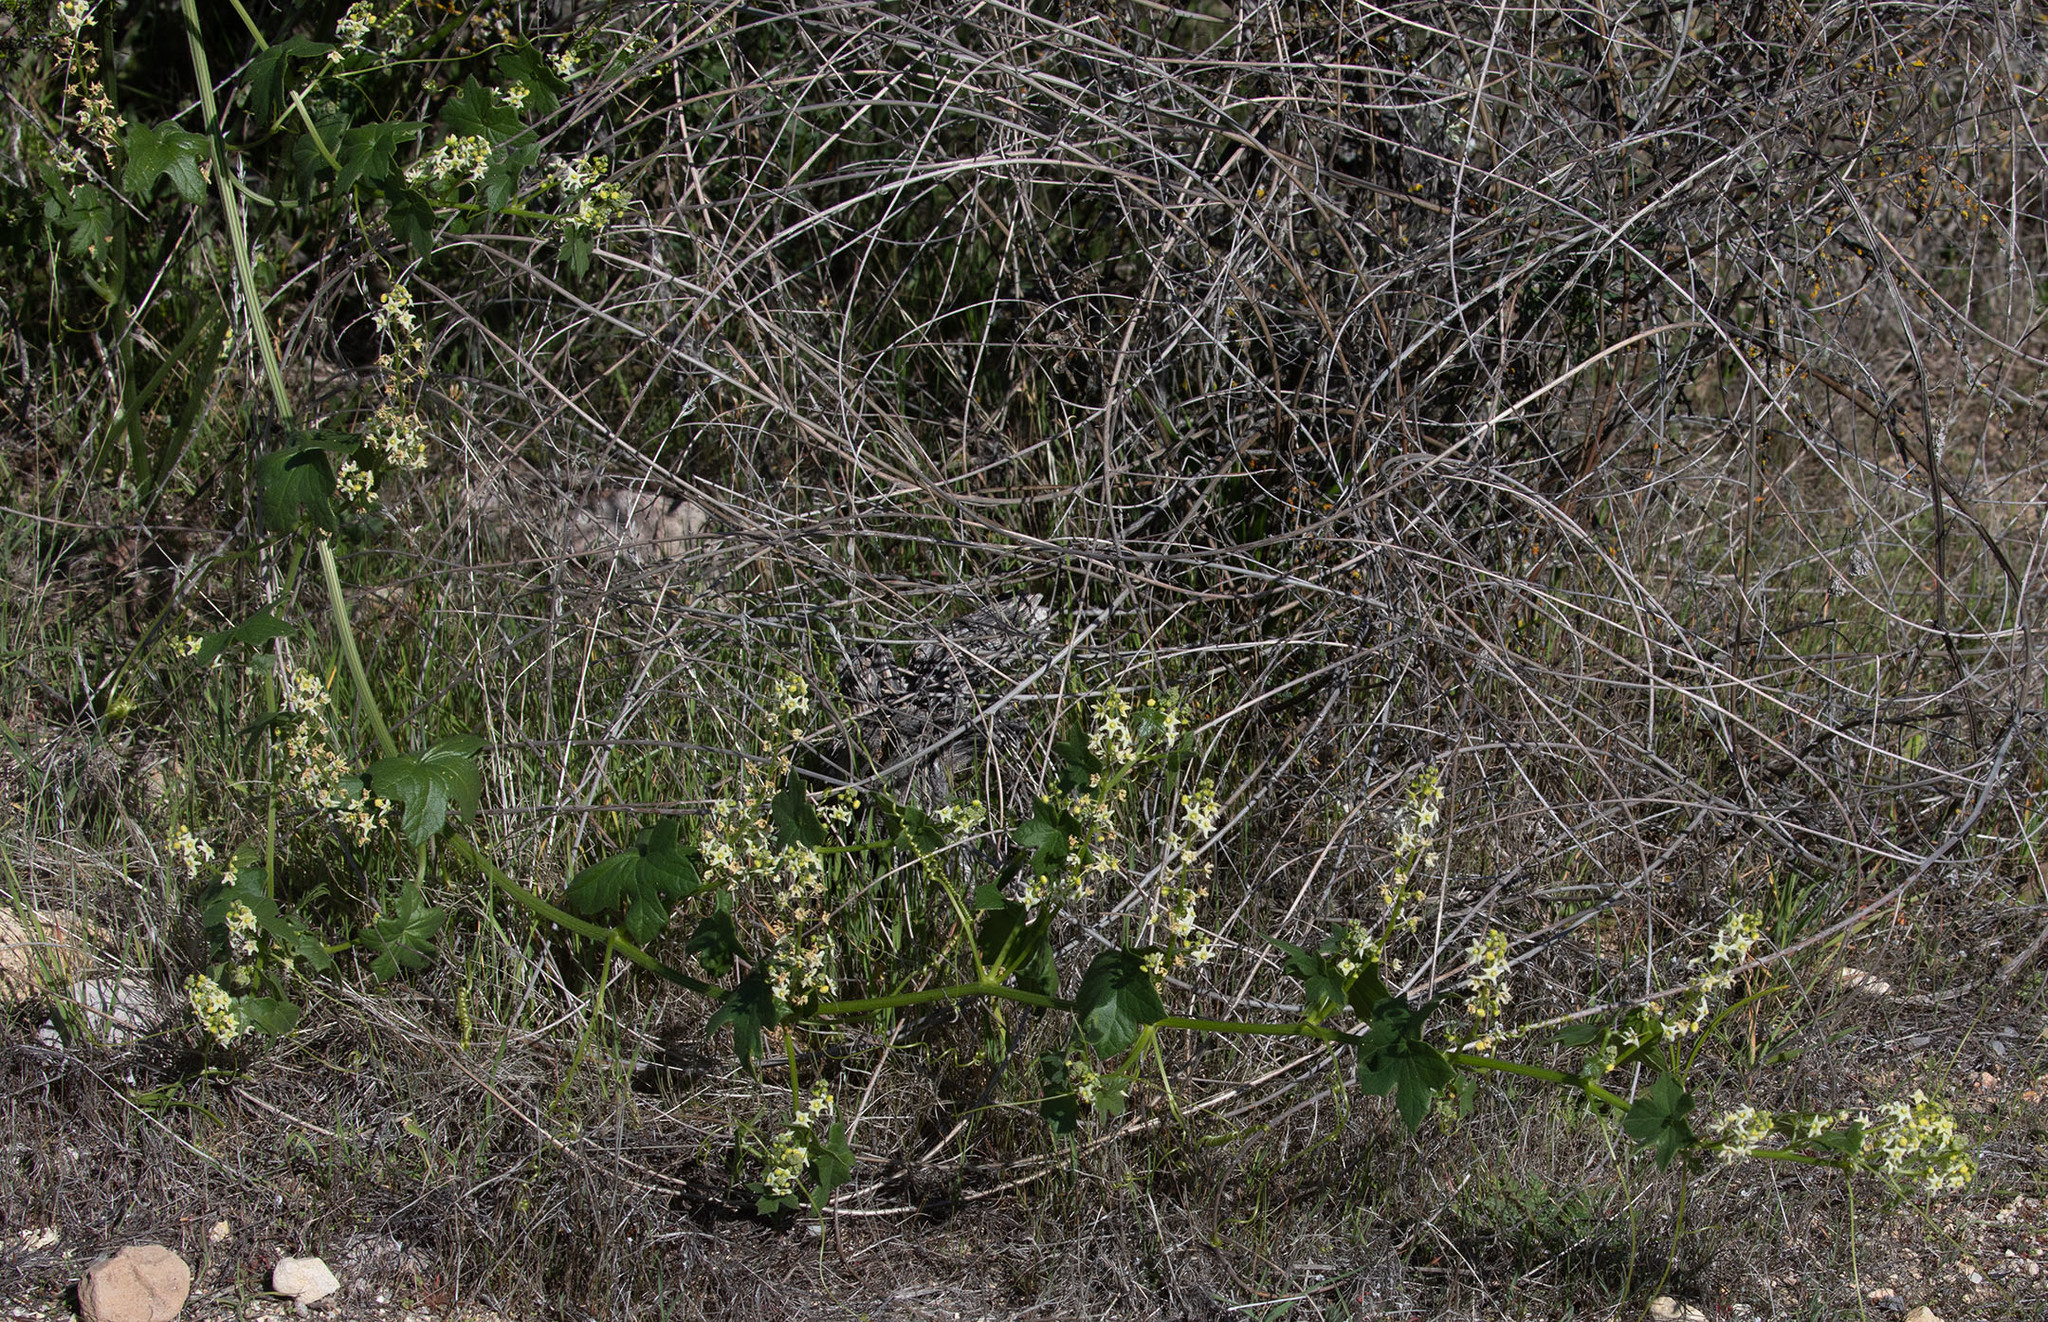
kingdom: Plantae
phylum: Tracheophyta
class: Magnoliopsida
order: Cucurbitales
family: Cucurbitaceae
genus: Marah
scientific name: Marah fabacea
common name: California manroot
